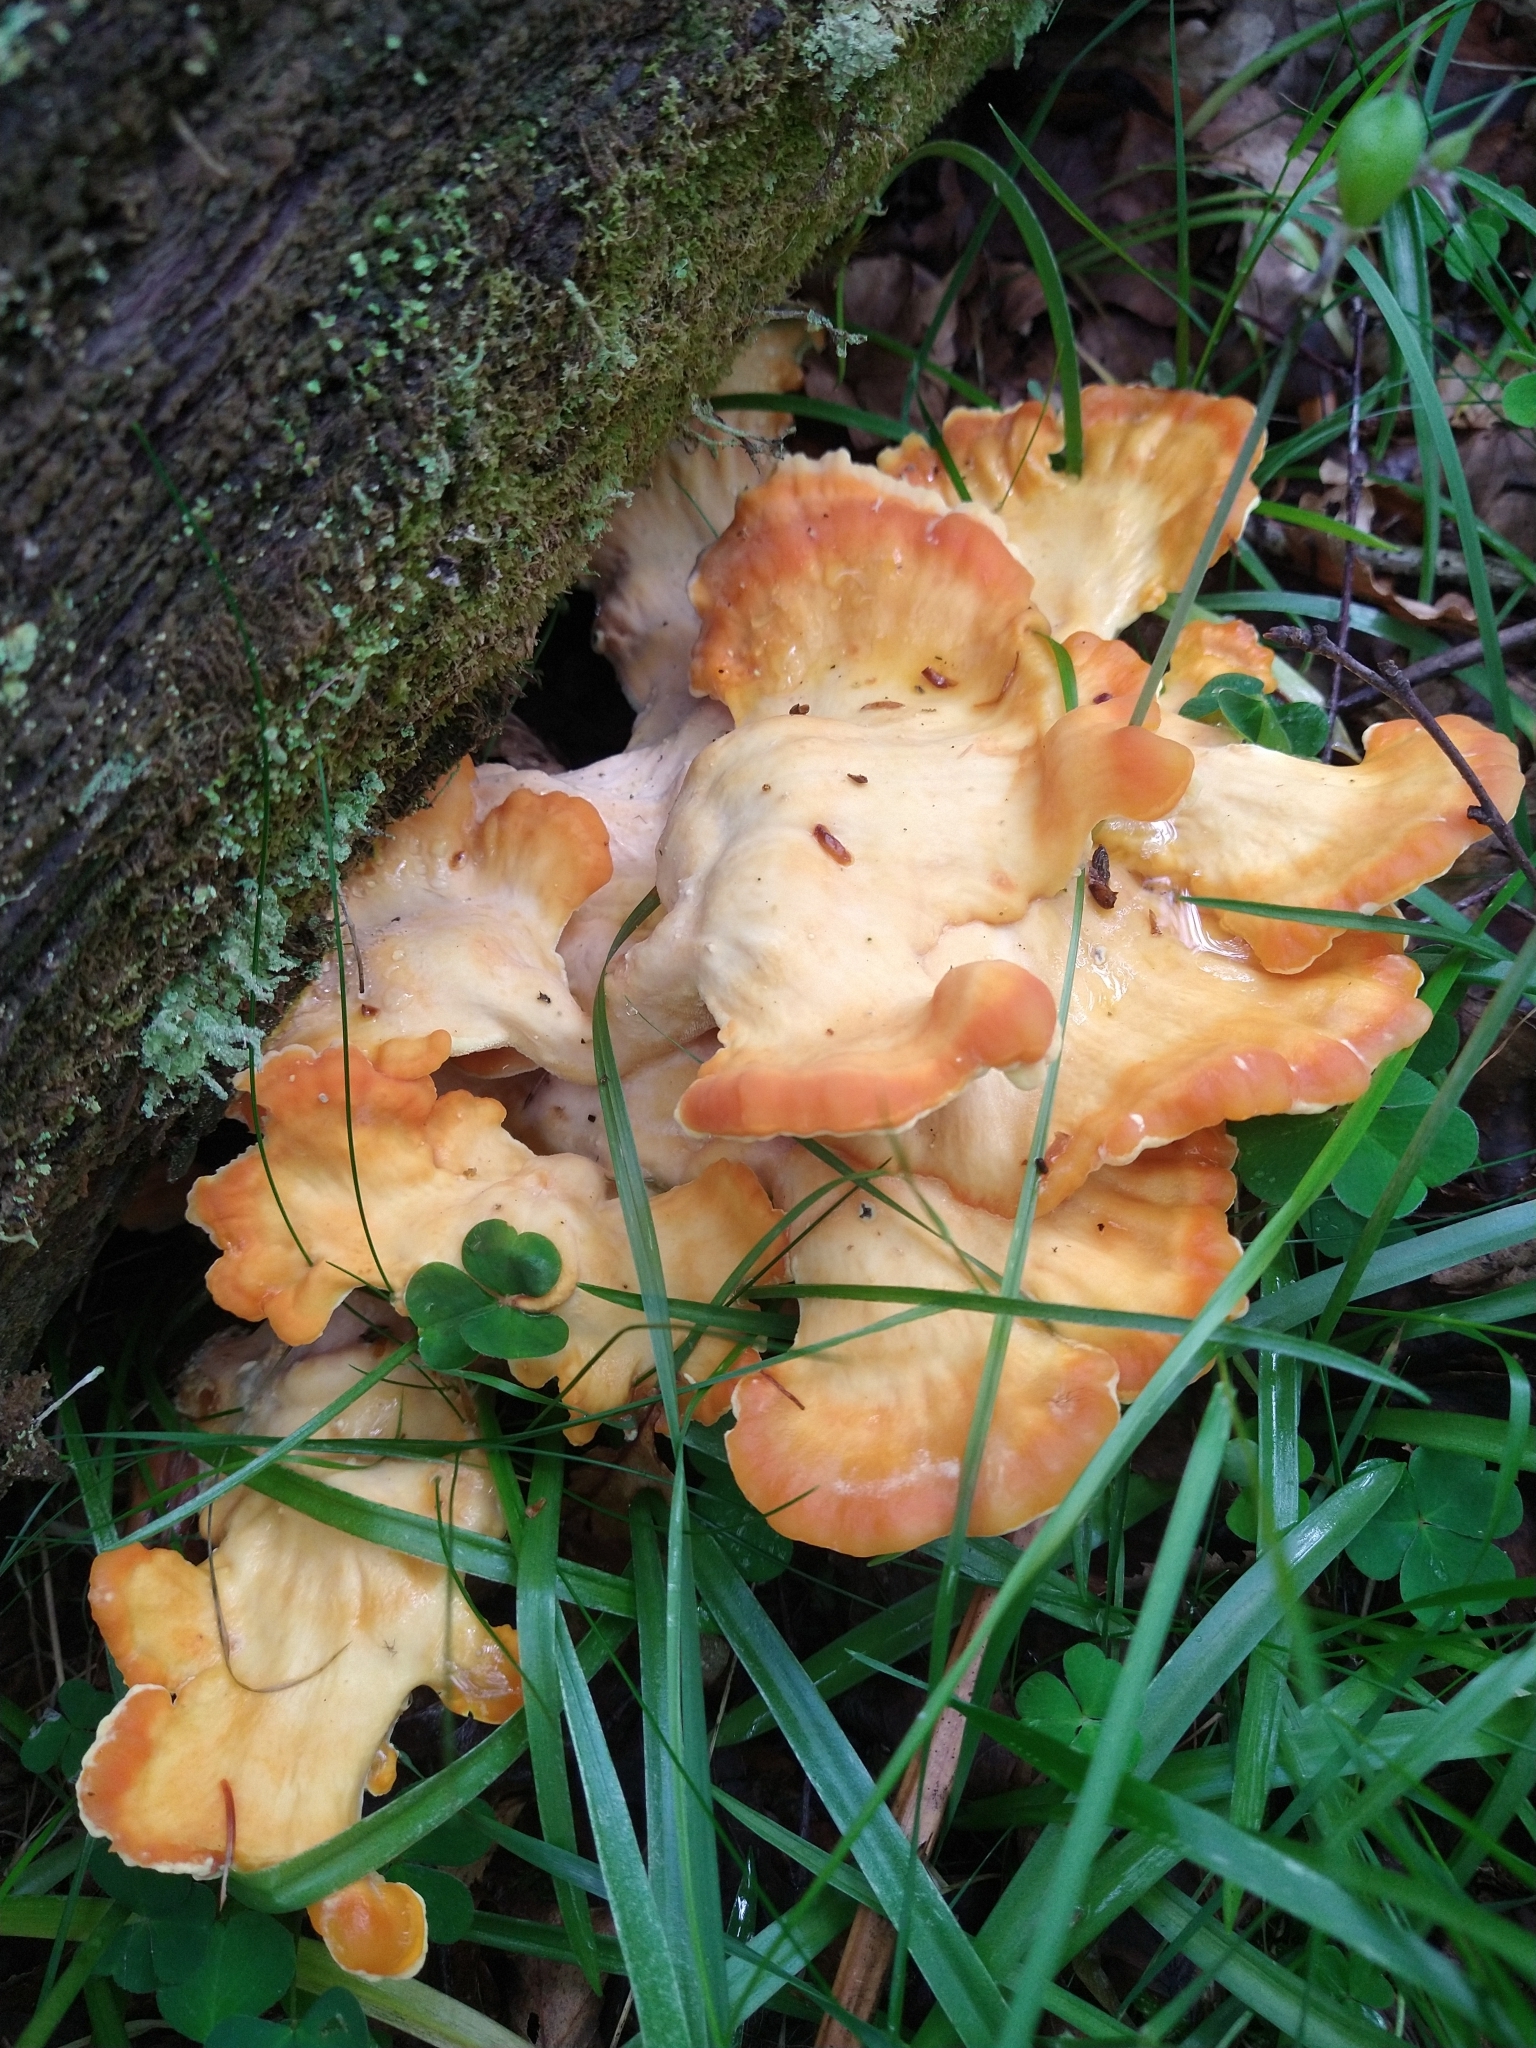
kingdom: Fungi
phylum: Basidiomycota
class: Agaricomycetes
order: Polyporales
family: Laetiporaceae
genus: Laetiporus
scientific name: Laetiporus sulphureus
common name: Chicken of the woods
